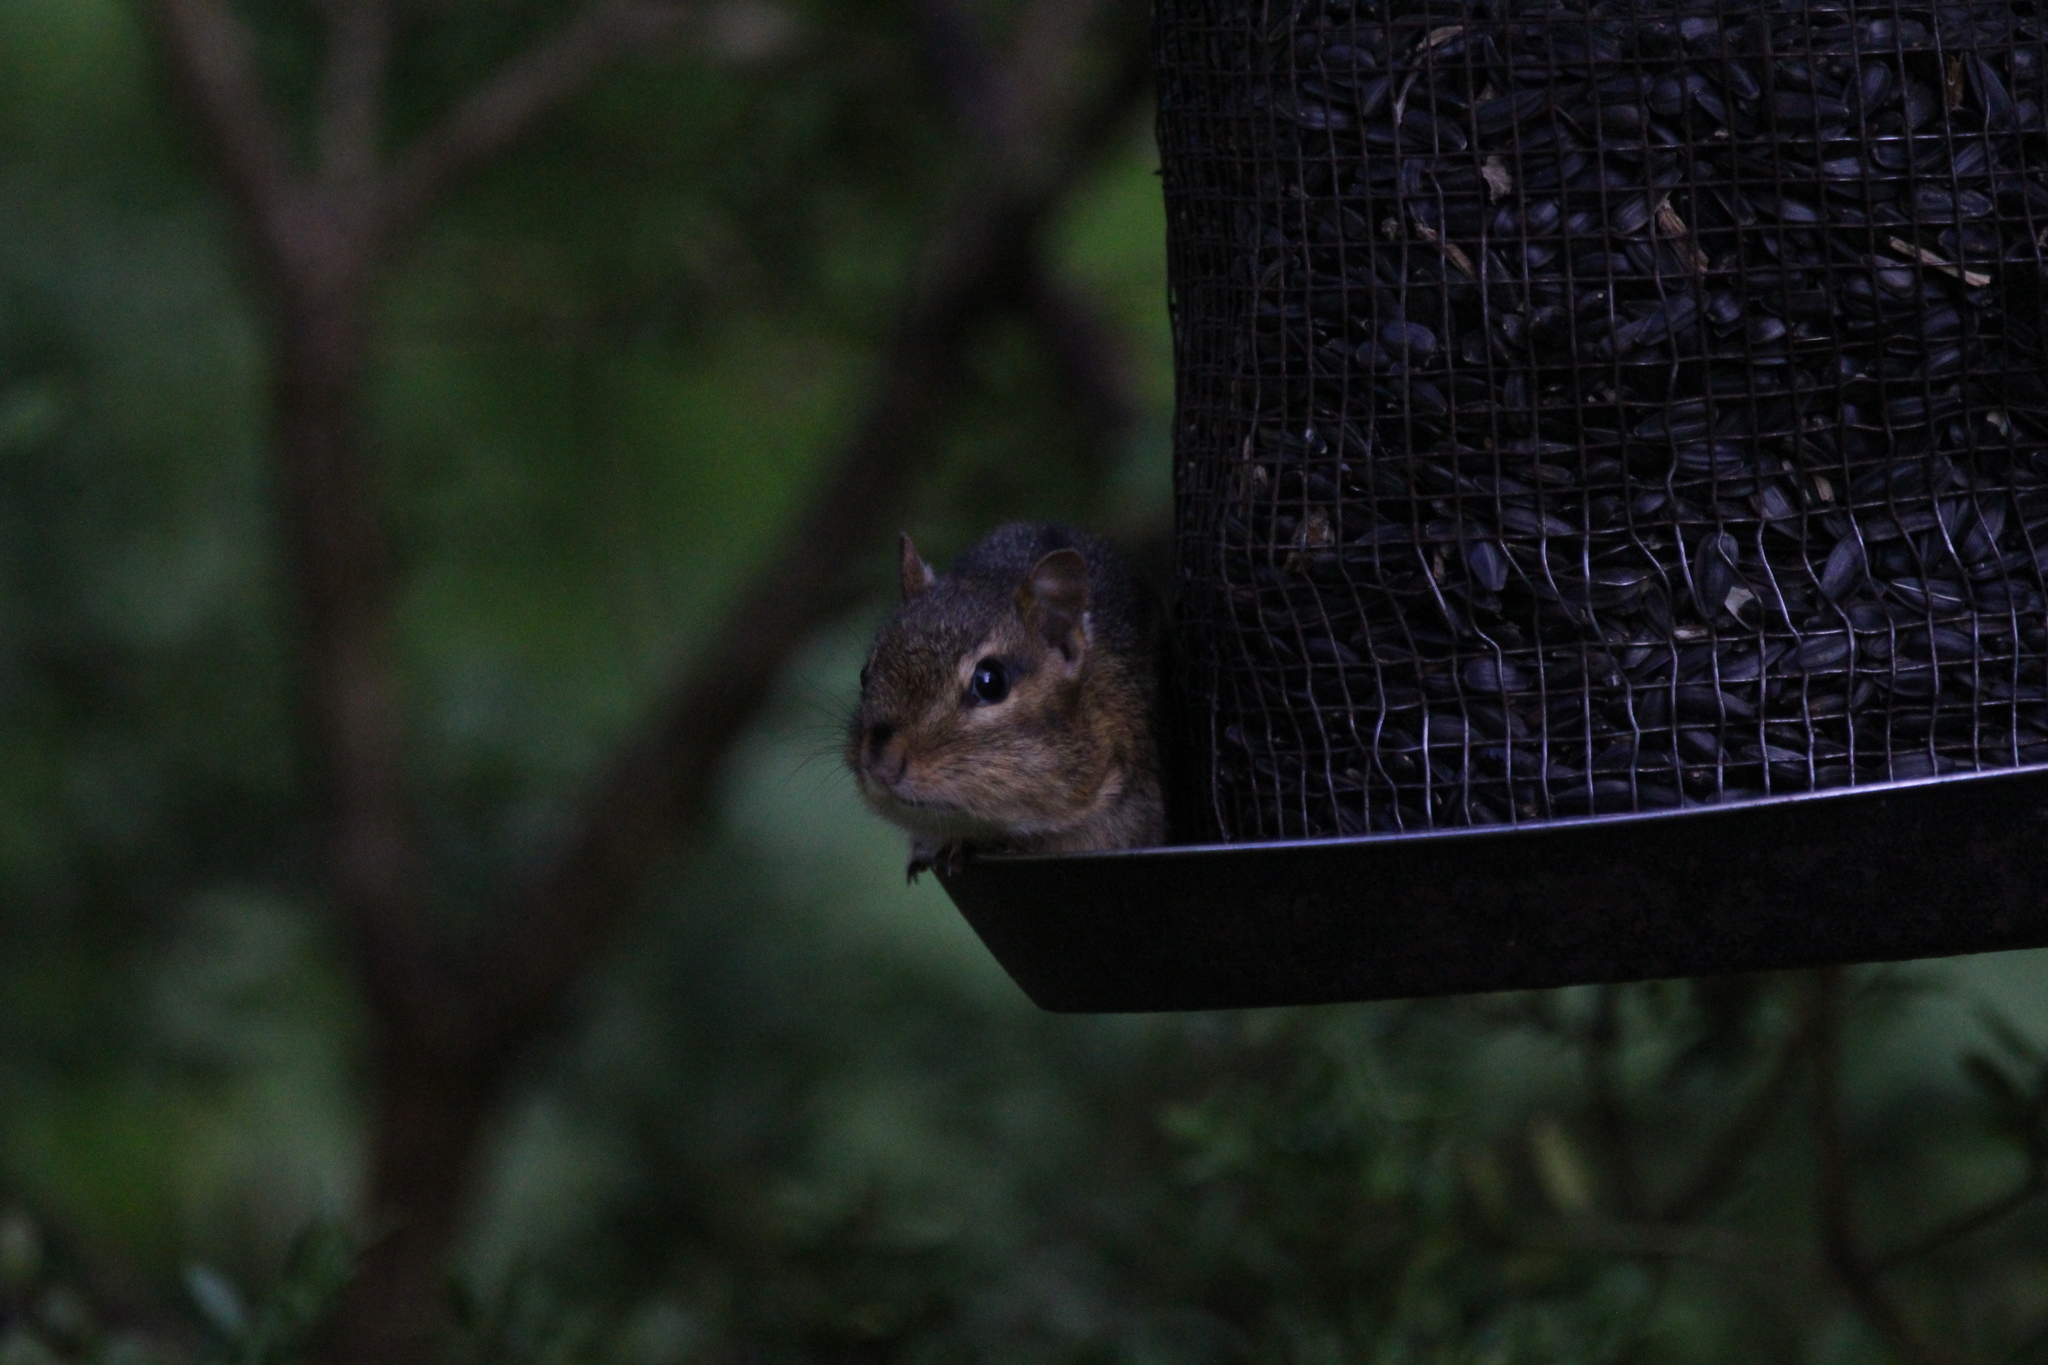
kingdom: Animalia
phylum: Chordata
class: Mammalia
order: Rodentia
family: Sciuridae
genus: Tamias
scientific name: Tamias striatus
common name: Eastern chipmunk
